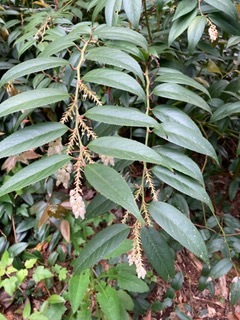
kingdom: Plantae
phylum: Tracheophyta
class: Magnoliopsida
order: Ericales
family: Ericaceae
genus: Leucothoe
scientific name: Leucothoe fontanesiana
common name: Fetterbush
